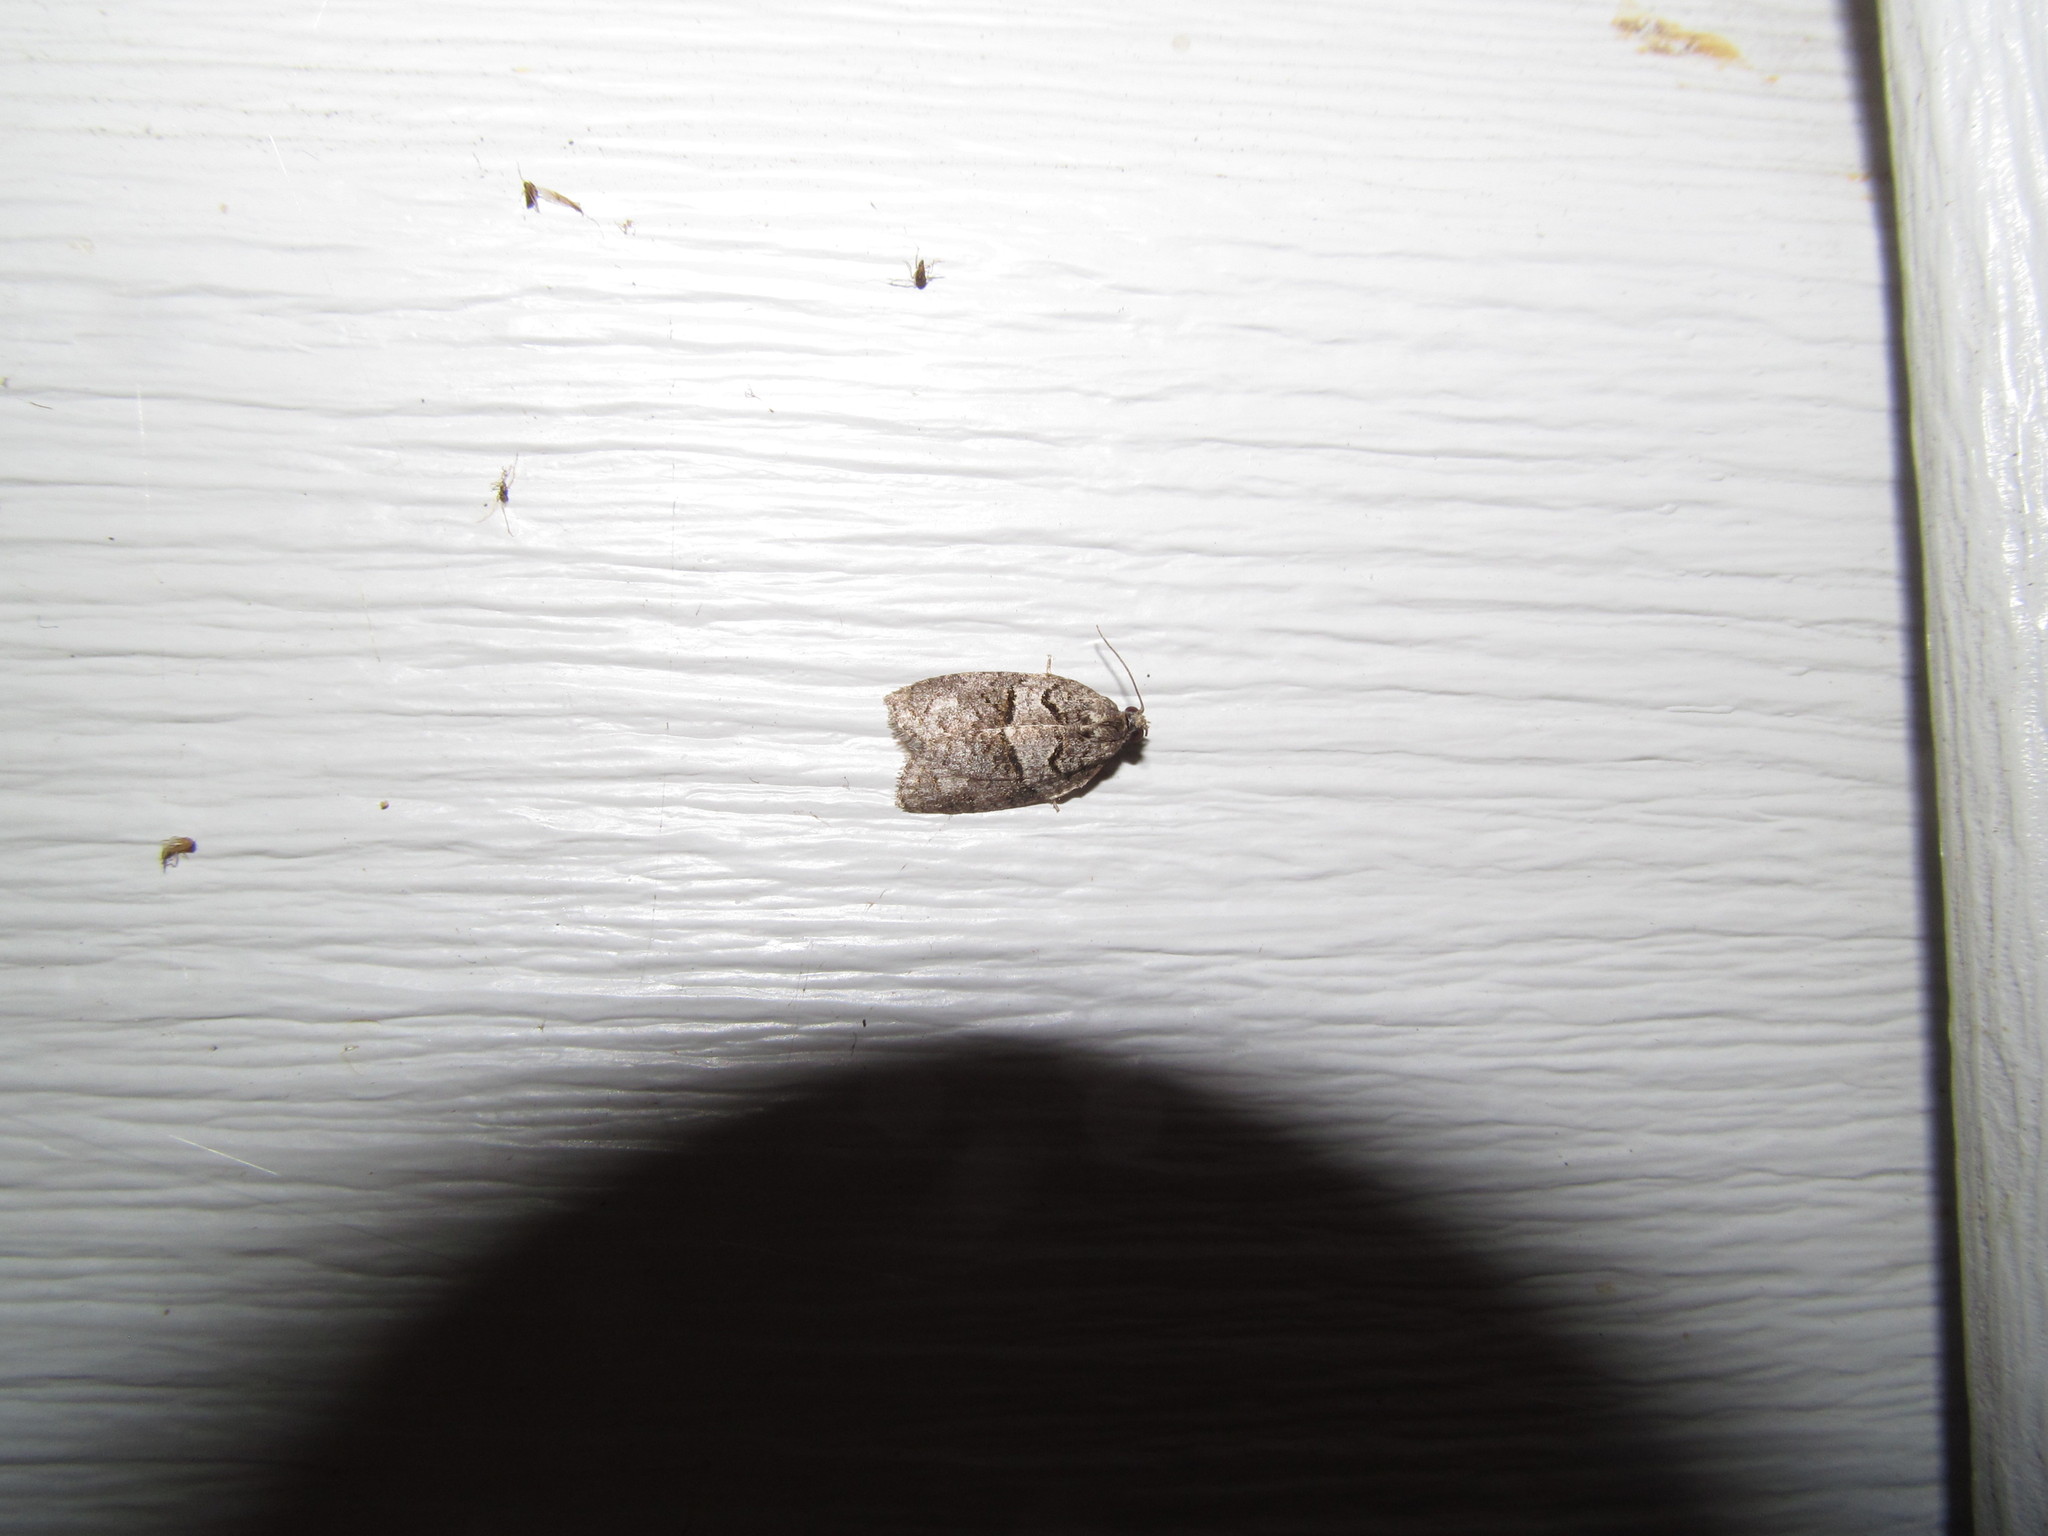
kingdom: Animalia
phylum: Arthropoda
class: Insecta
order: Lepidoptera
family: Tortricidae
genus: Syndemis
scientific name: Syndemis afflictana
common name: Gray leafroller moth
